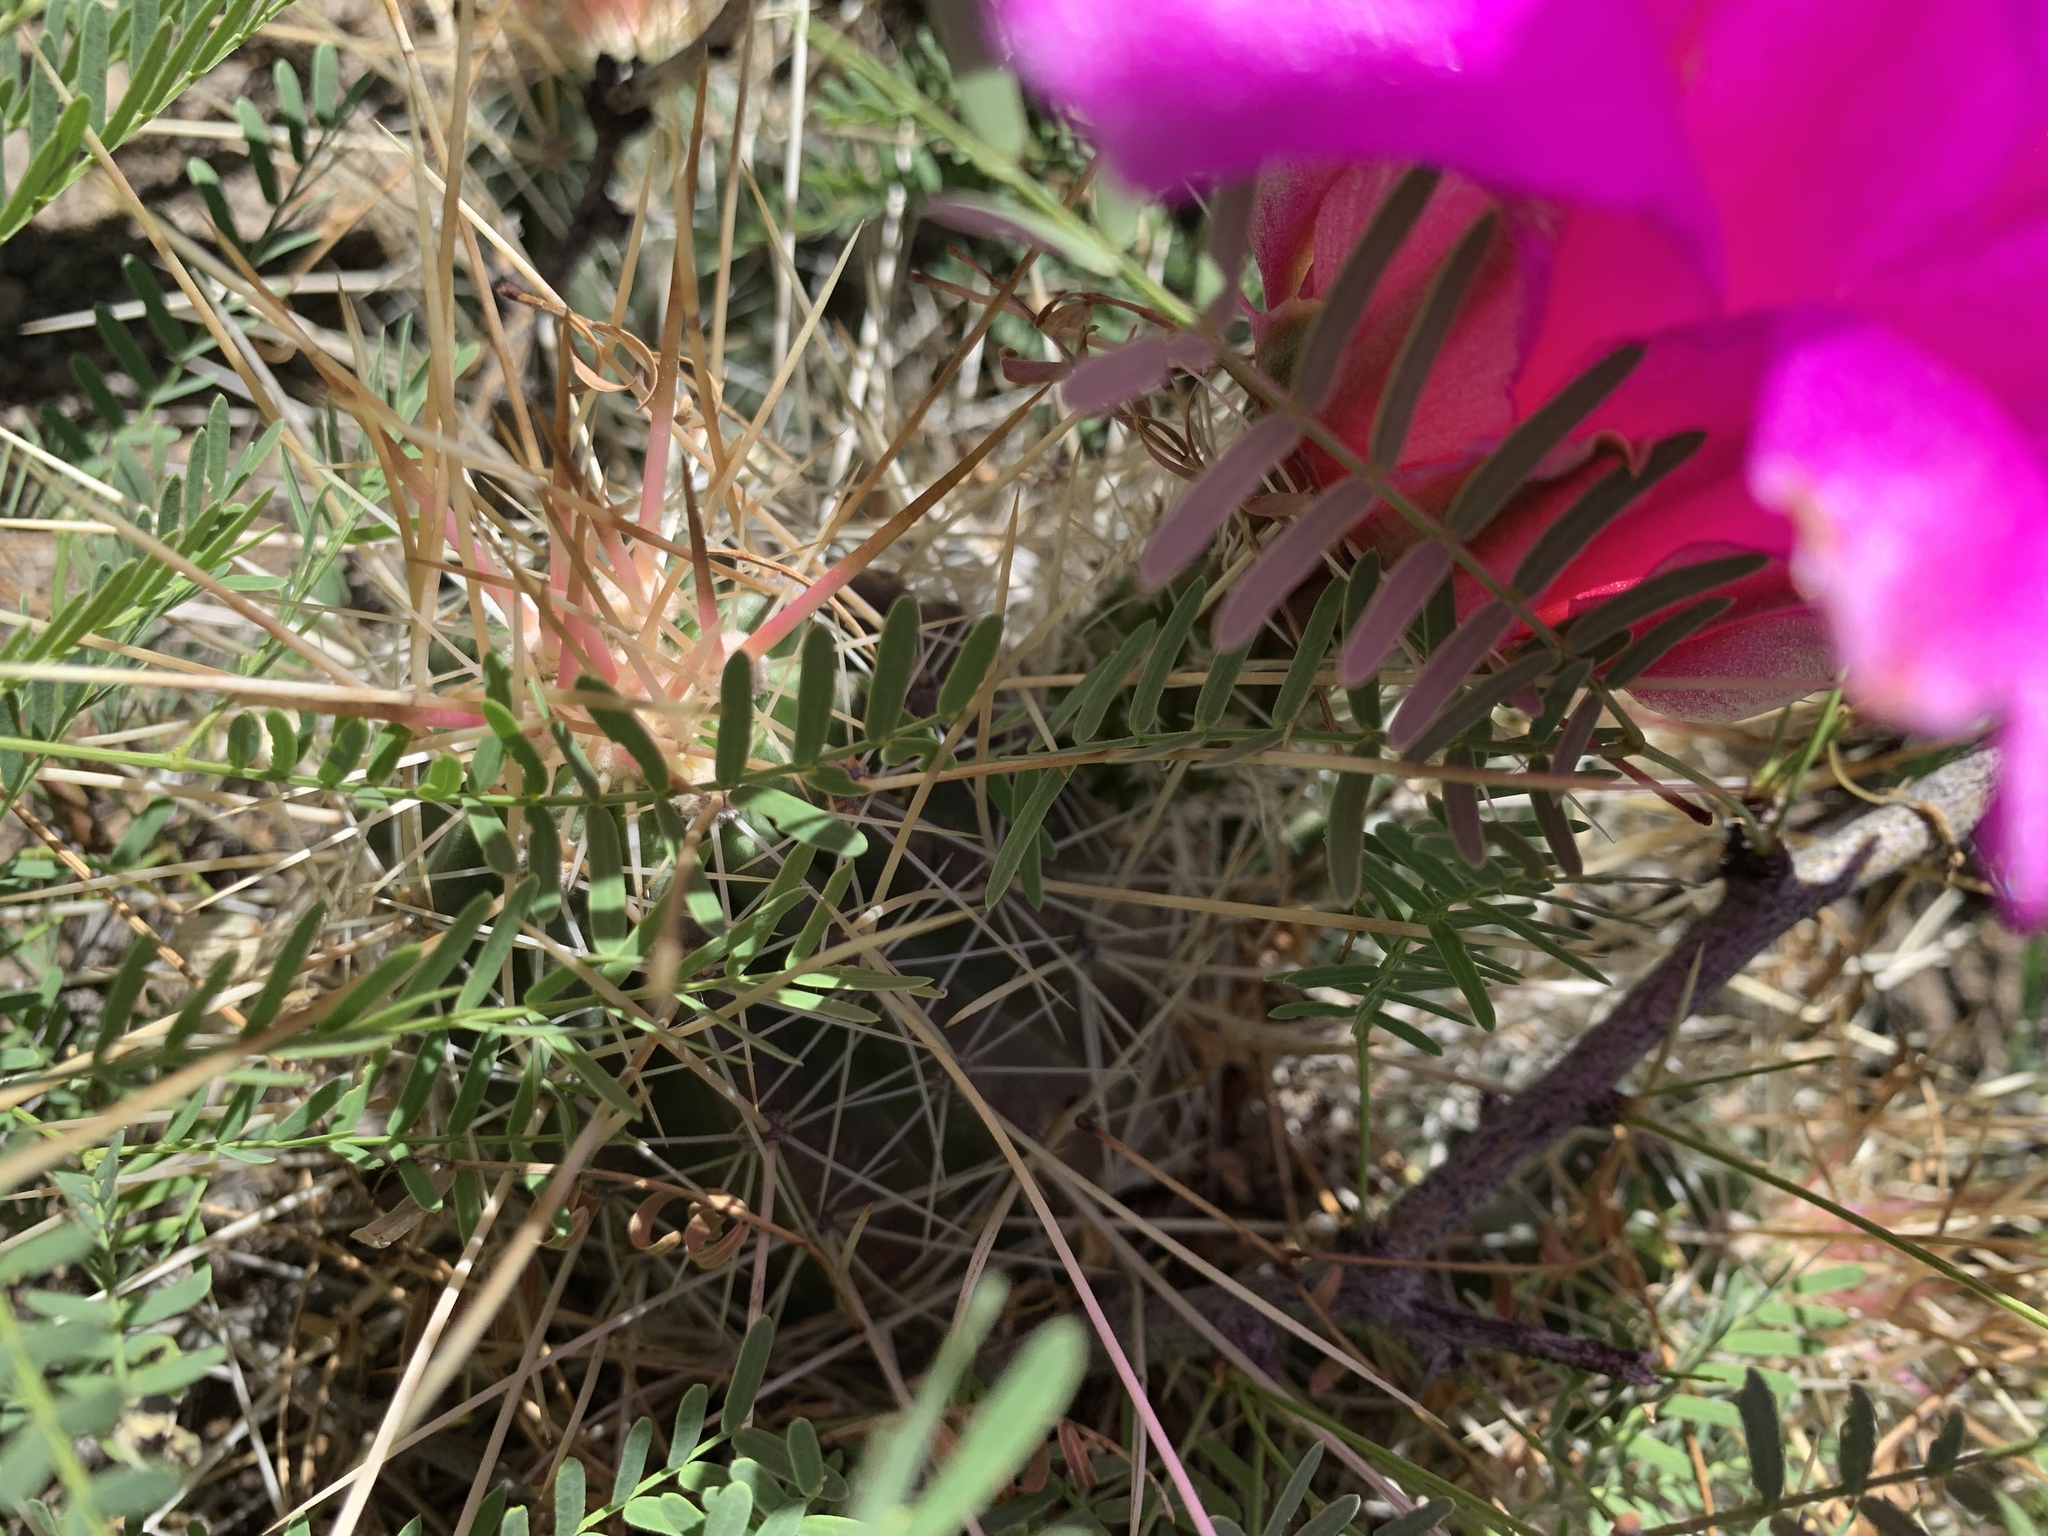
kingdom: Plantae
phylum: Tracheophyta
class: Magnoliopsida
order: Caryophyllales
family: Cactaceae
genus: Echinocereus
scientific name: Echinocereus stramineus
